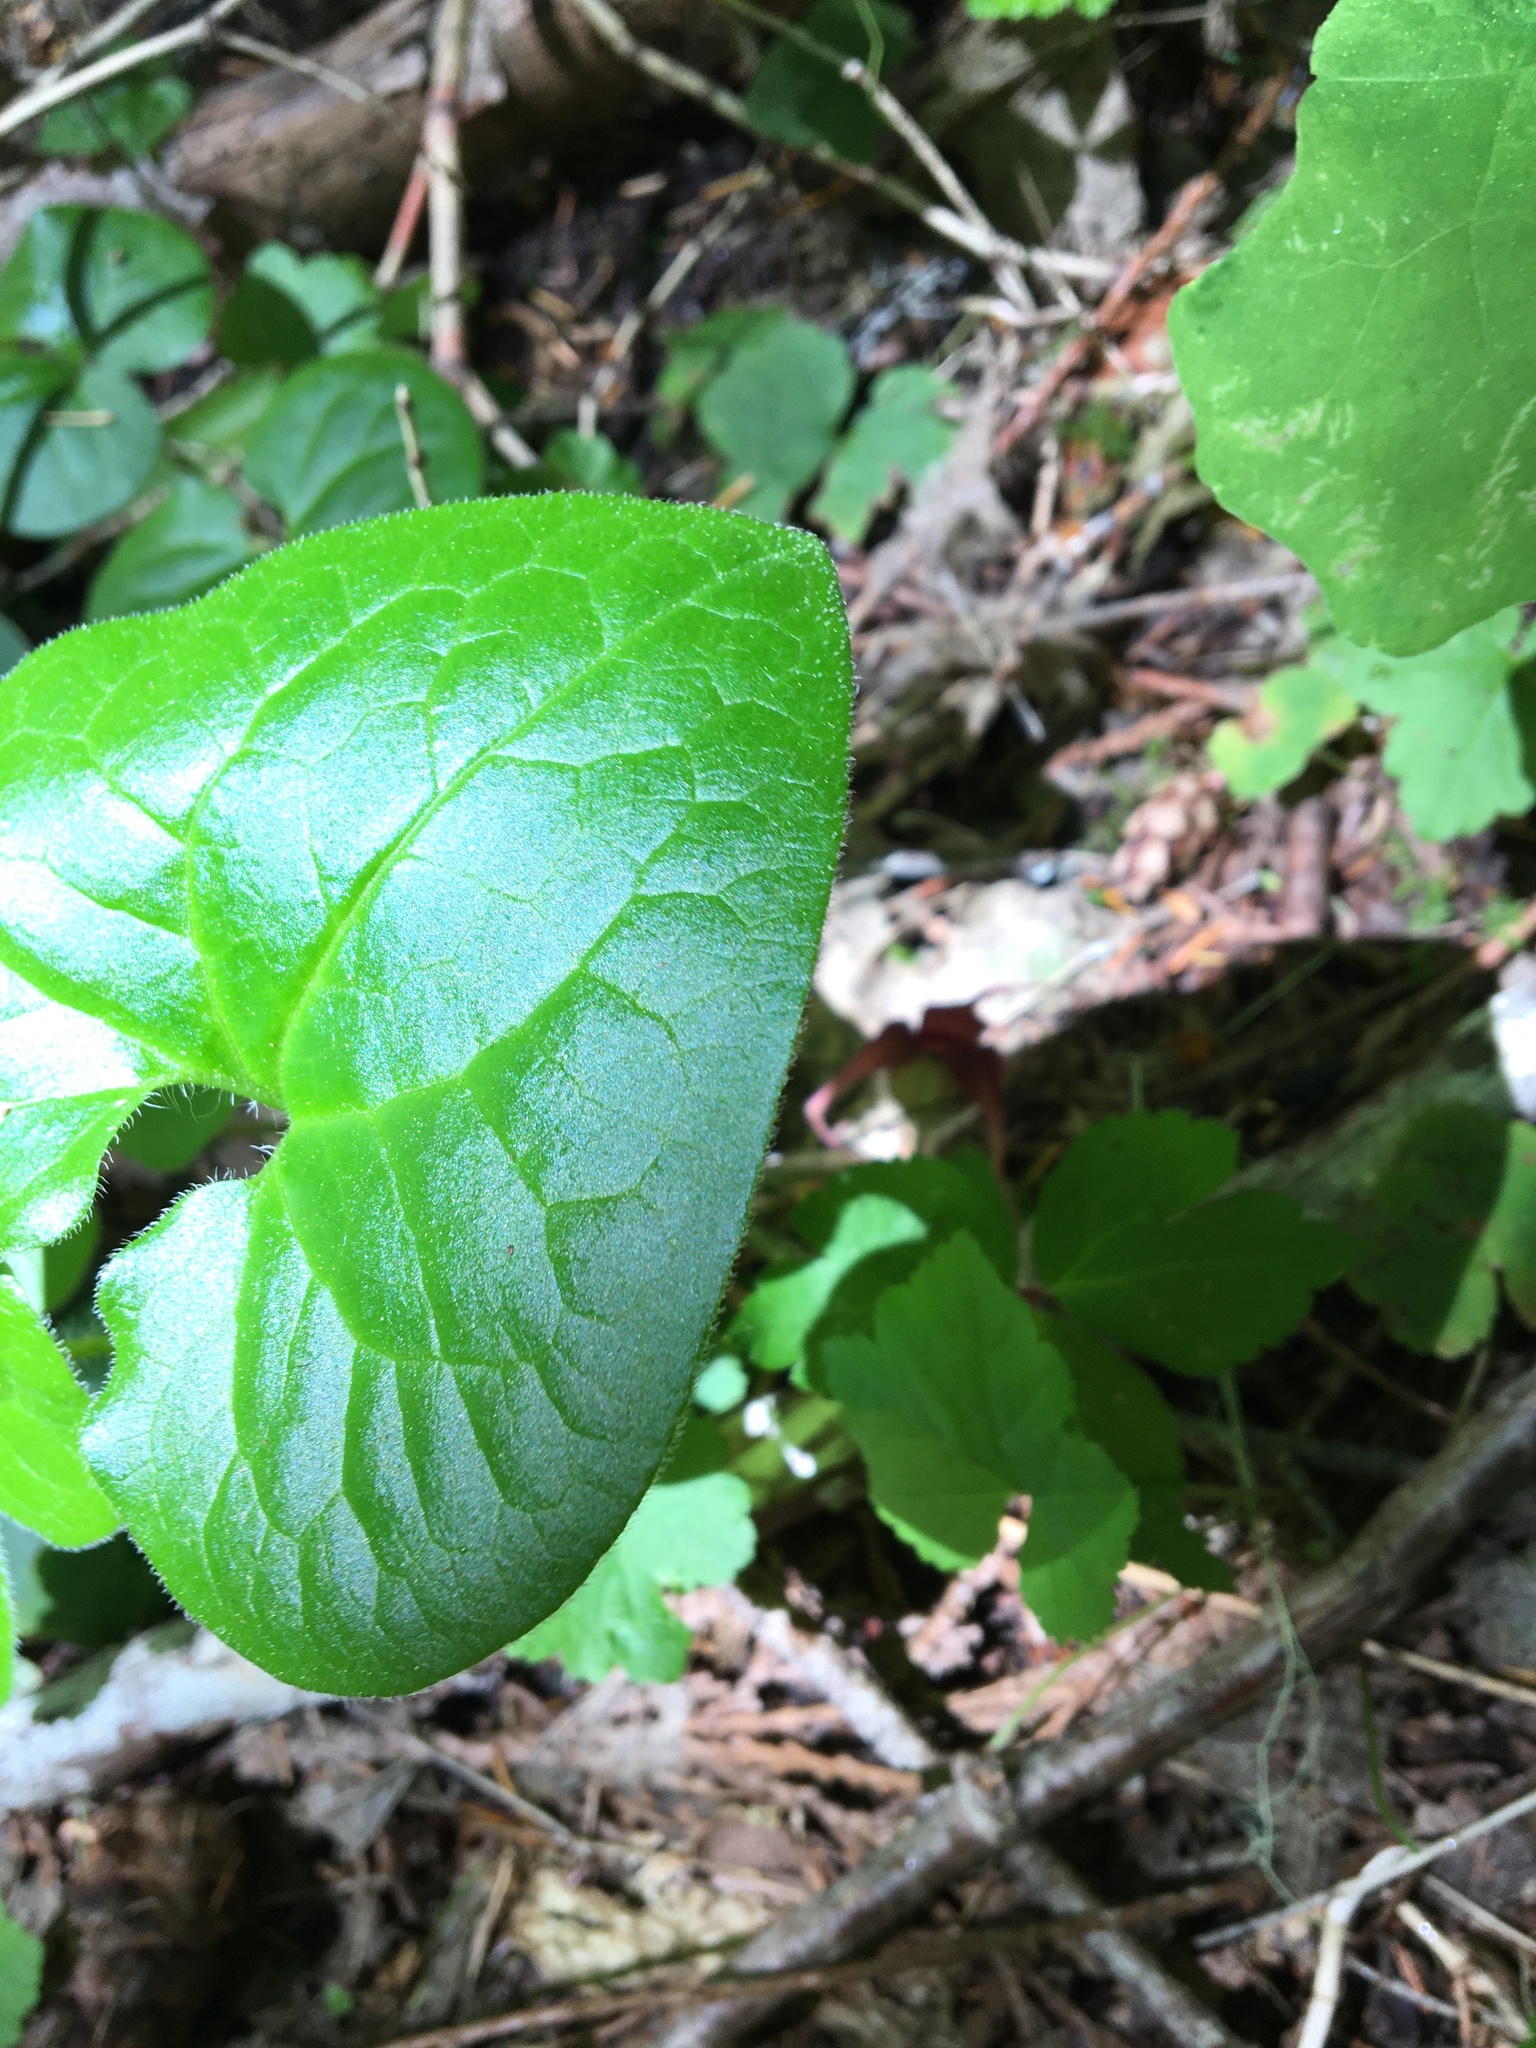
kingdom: Plantae
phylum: Tracheophyta
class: Magnoliopsida
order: Piperales
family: Aristolochiaceae
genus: Asarum
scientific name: Asarum caudatum
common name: Wild ginger
